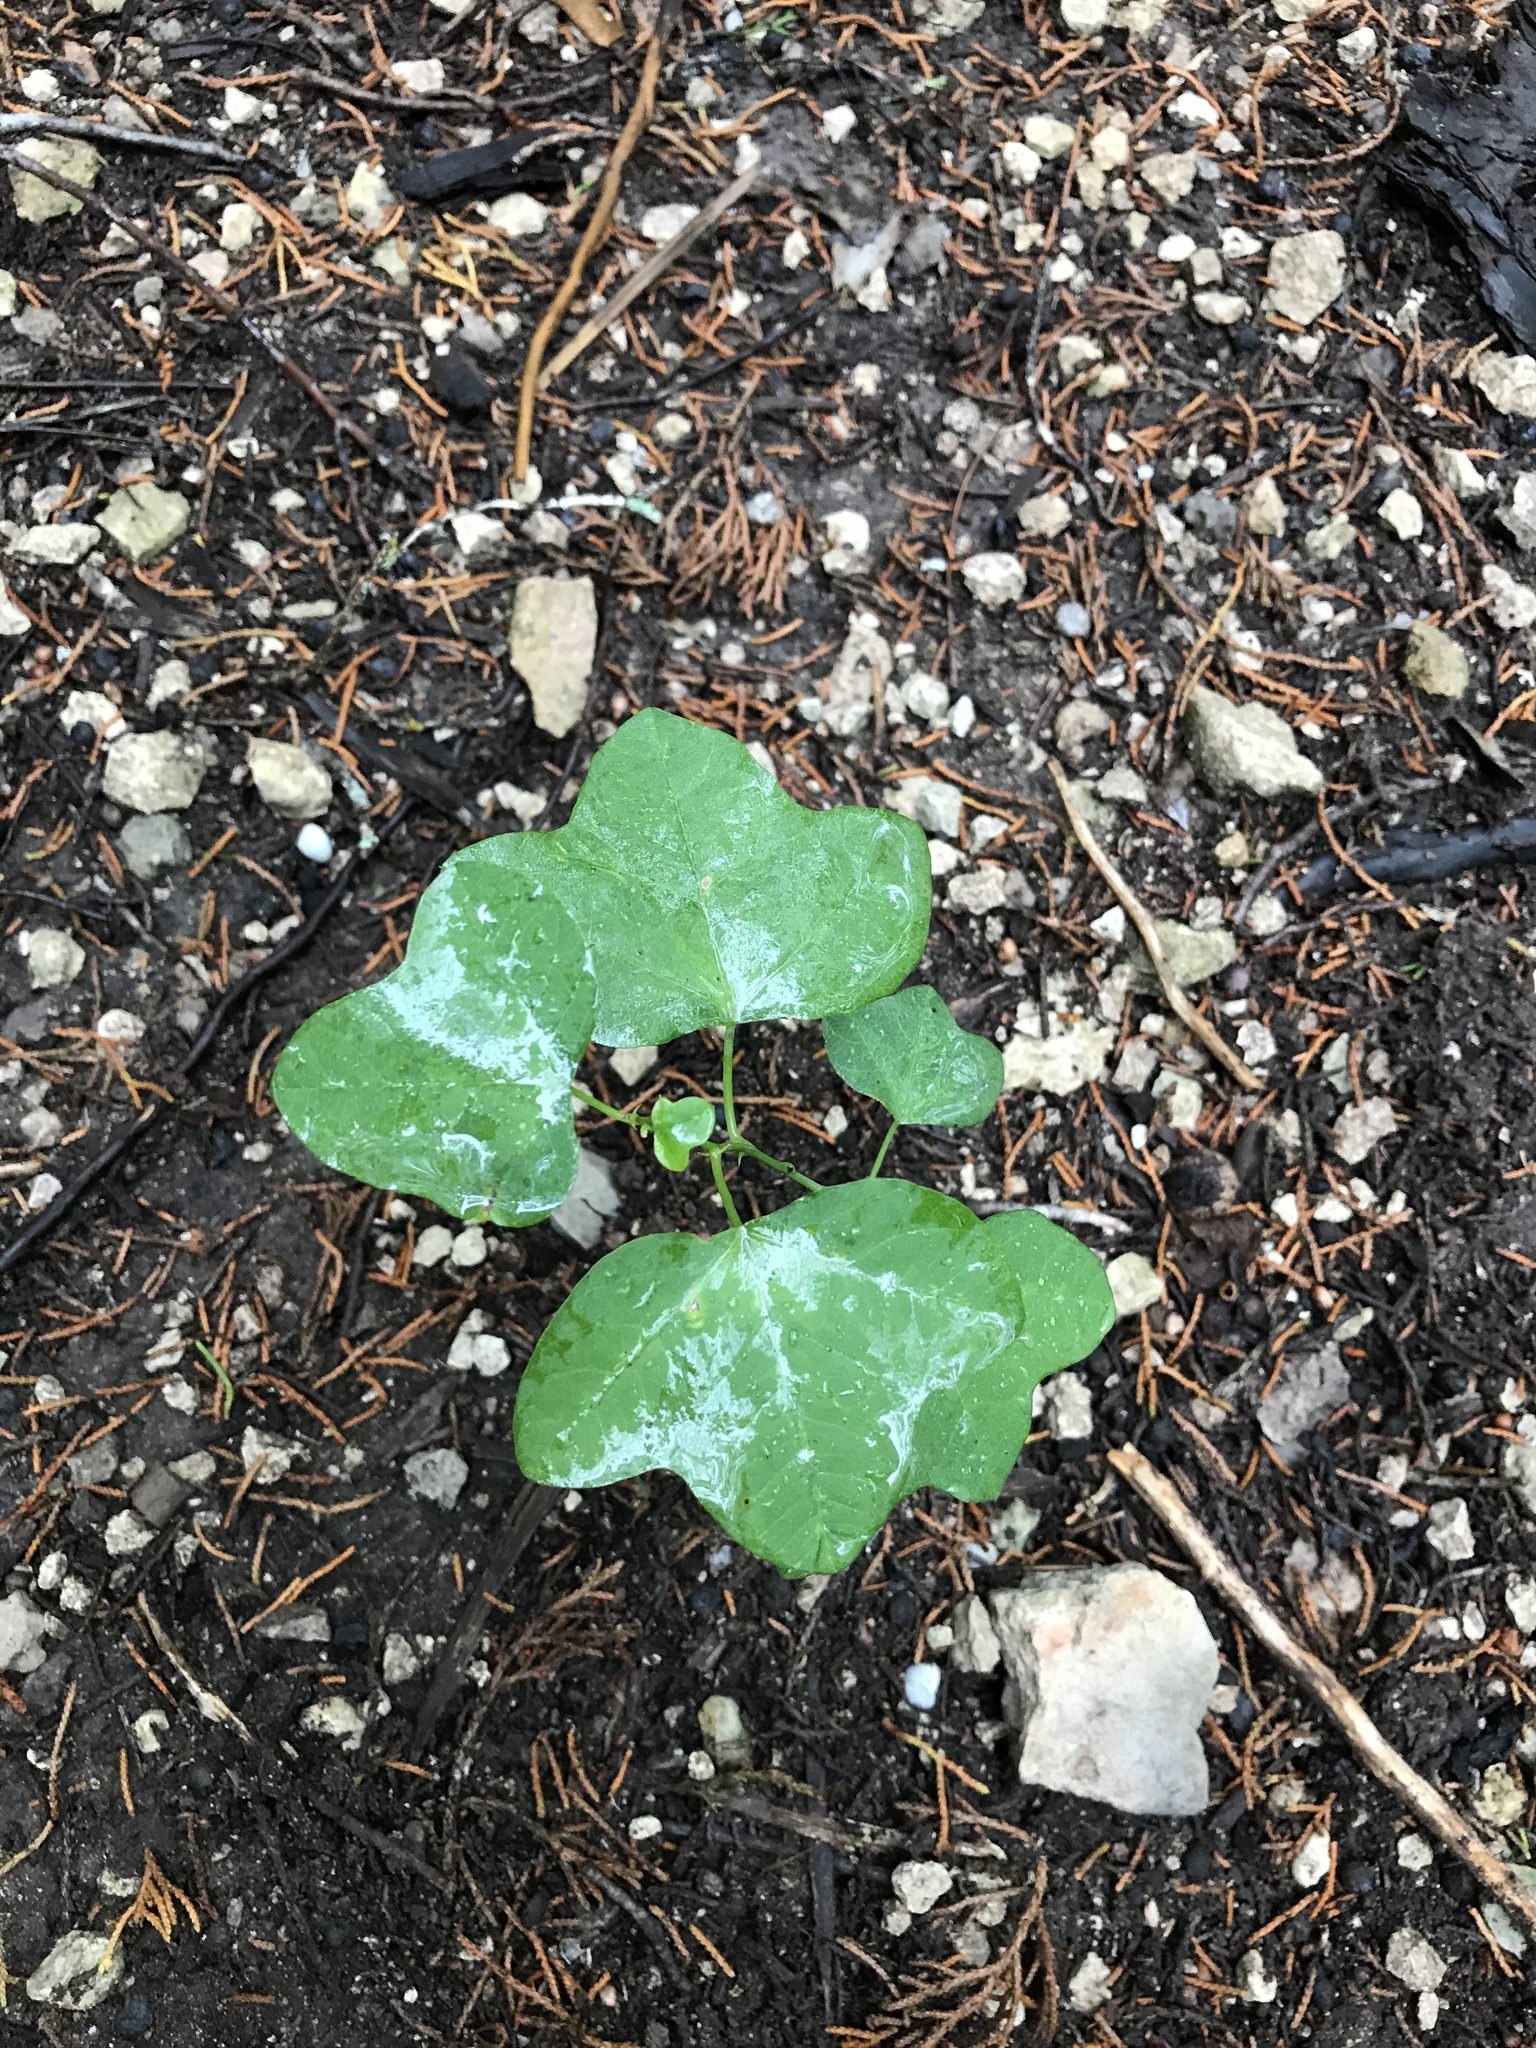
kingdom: Plantae
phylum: Tracheophyta
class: Magnoliopsida
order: Malpighiales
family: Passifloraceae
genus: Passiflora
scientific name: Passiflora lutea
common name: Yellow passionflower
